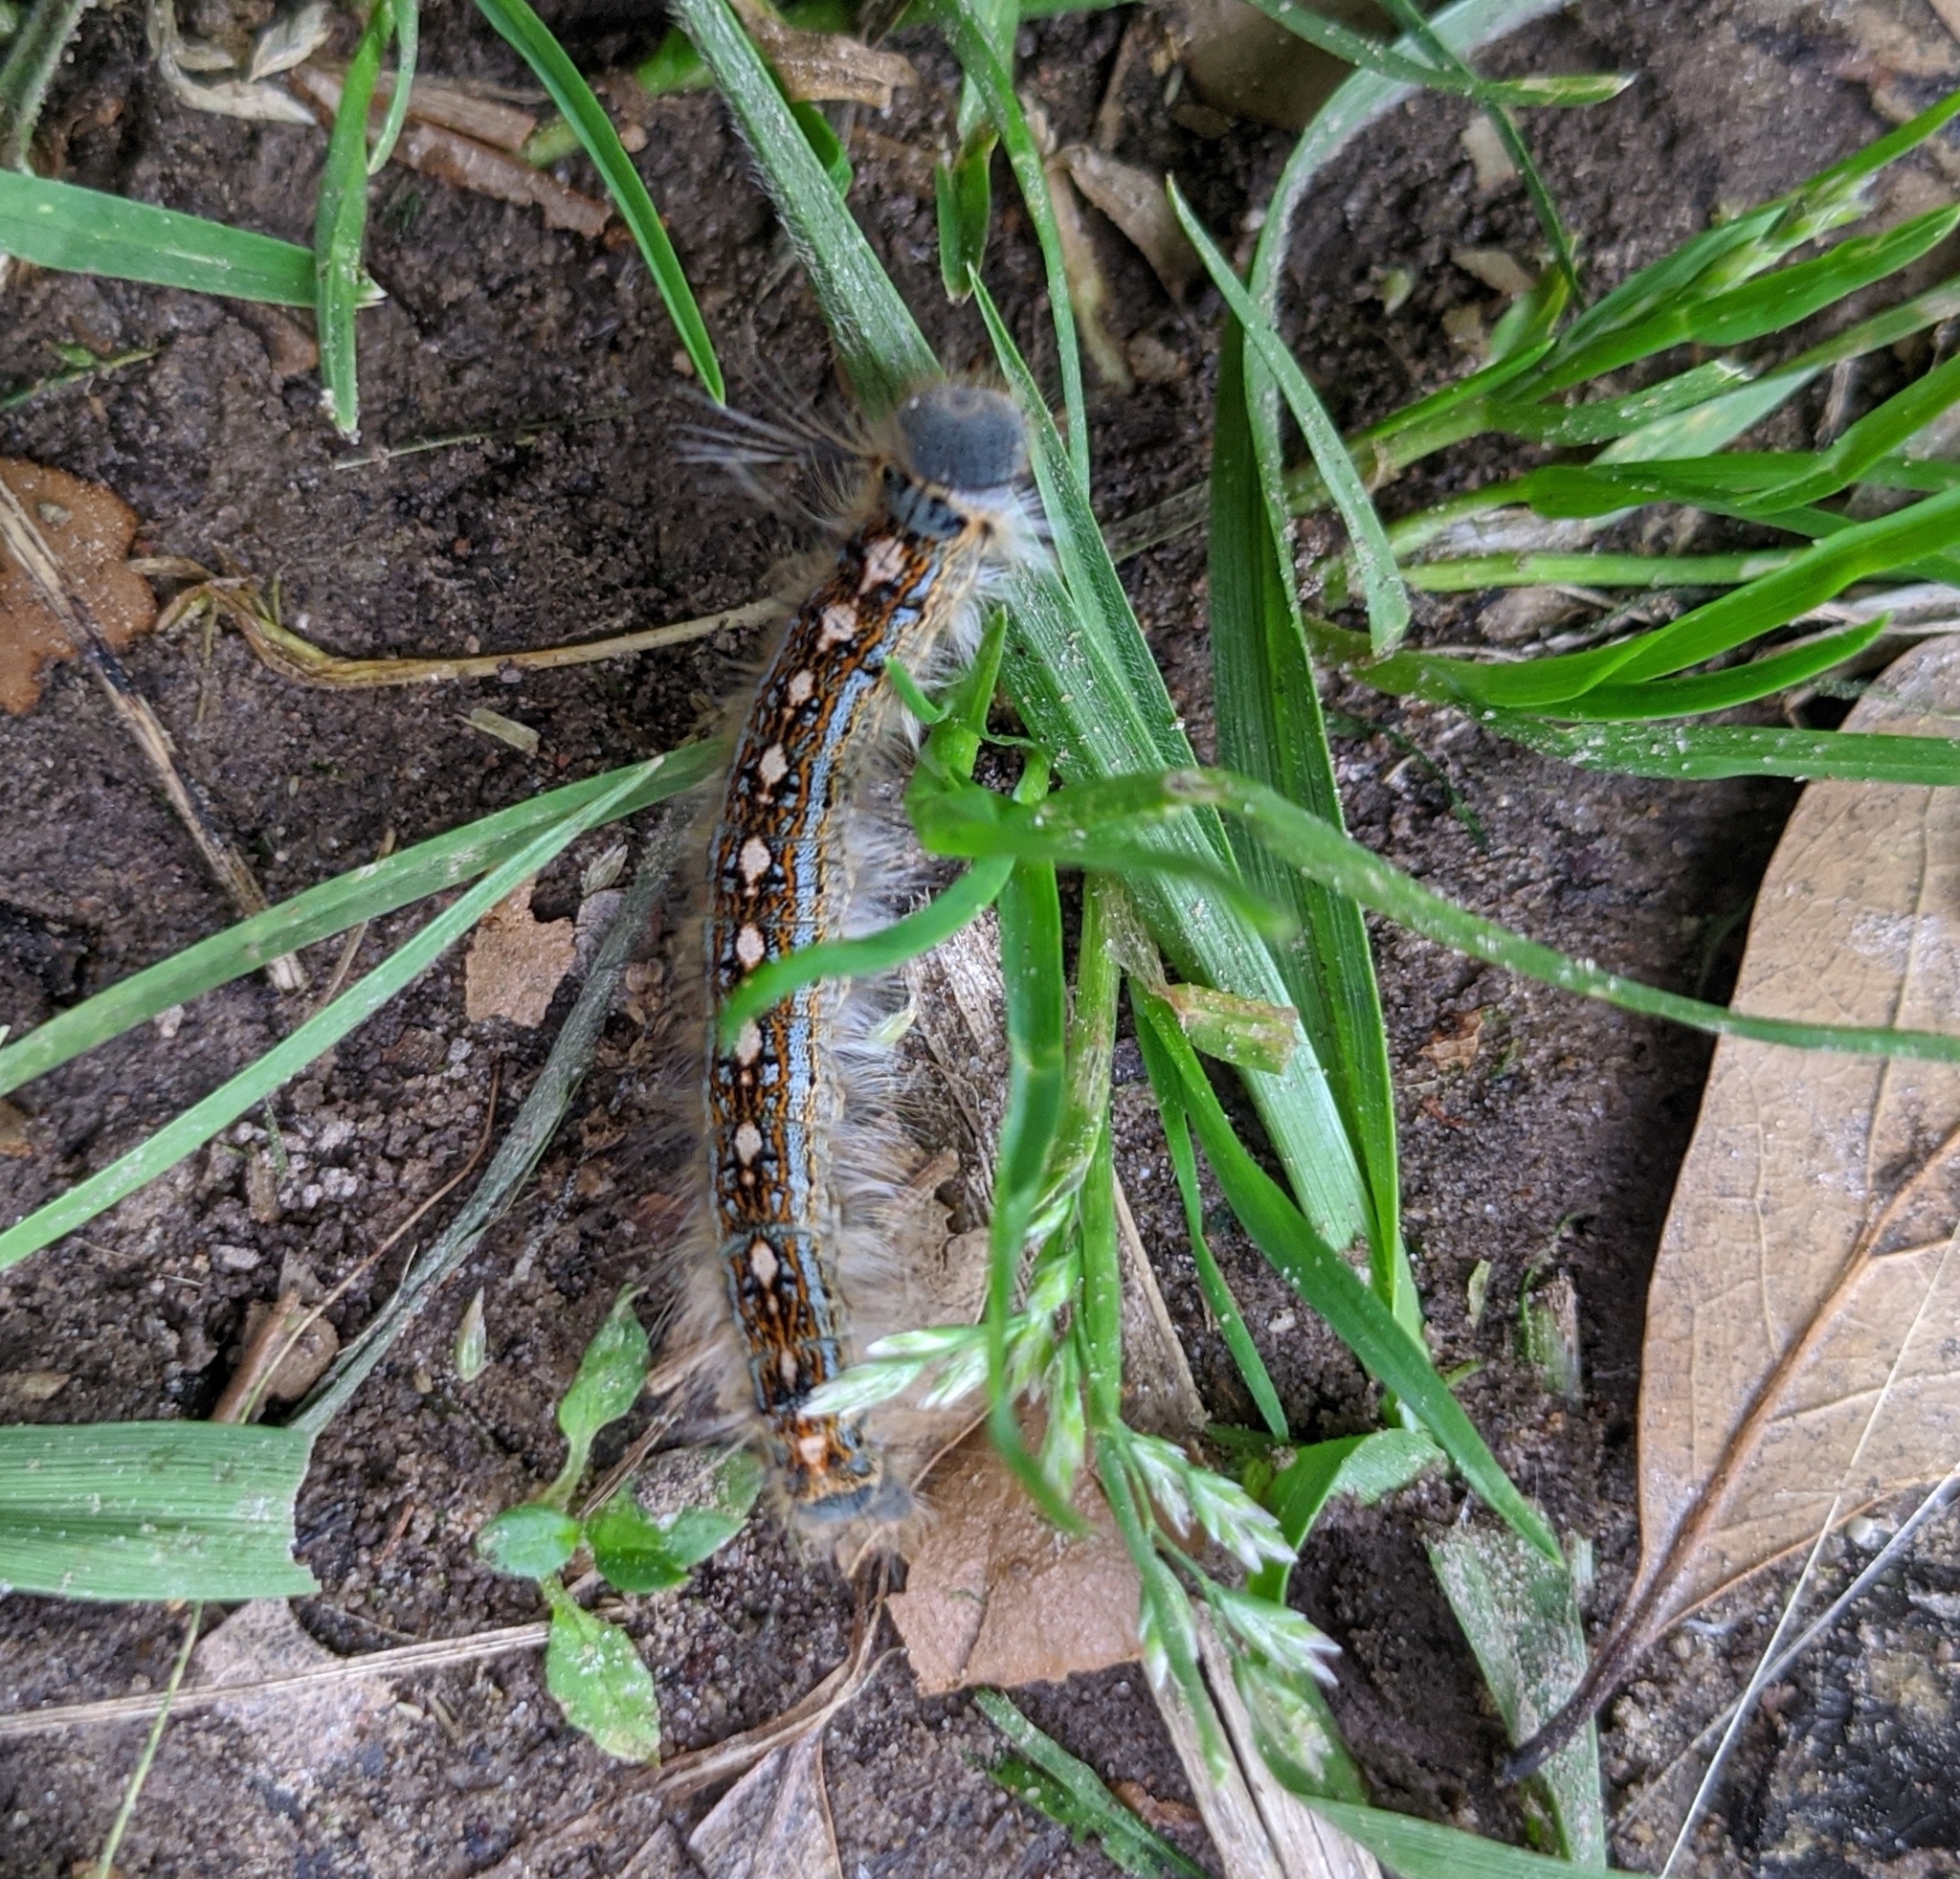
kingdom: Animalia
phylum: Arthropoda
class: Insecta
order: Lepidoptera
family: Lasiocampidae
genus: Malacosoma
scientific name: Malacosoma disstria
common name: Forest tent caterpillar
